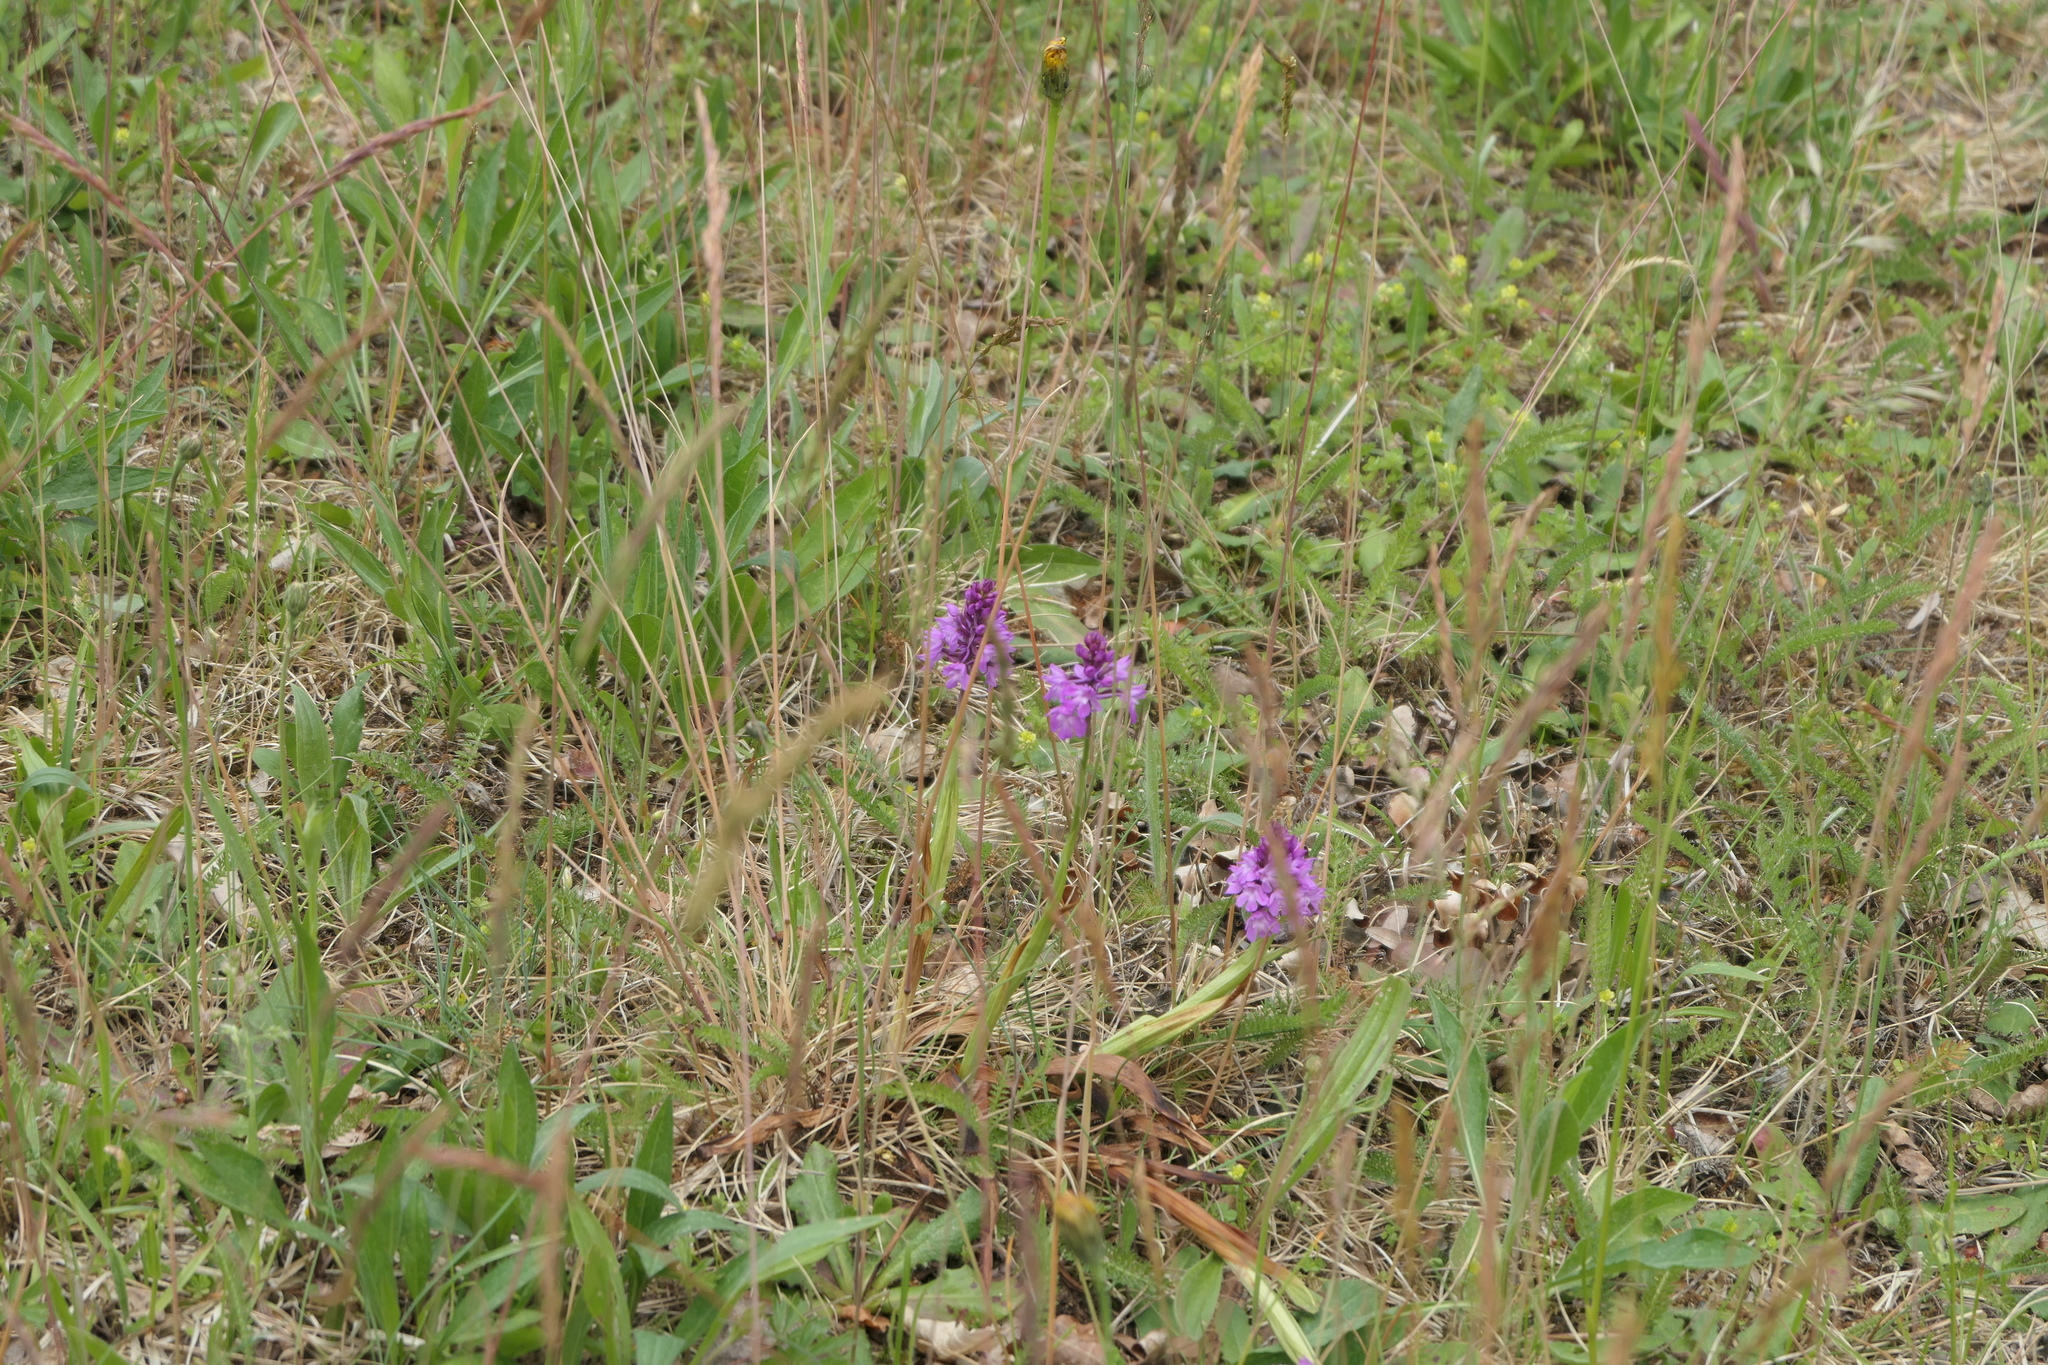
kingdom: Plantae
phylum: Tracheophyta
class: Liliopsida
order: Asparagales
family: Orchidaceae
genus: Anacamptis
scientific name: Anacamptis pyramidalis
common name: Pyramidal orchid
